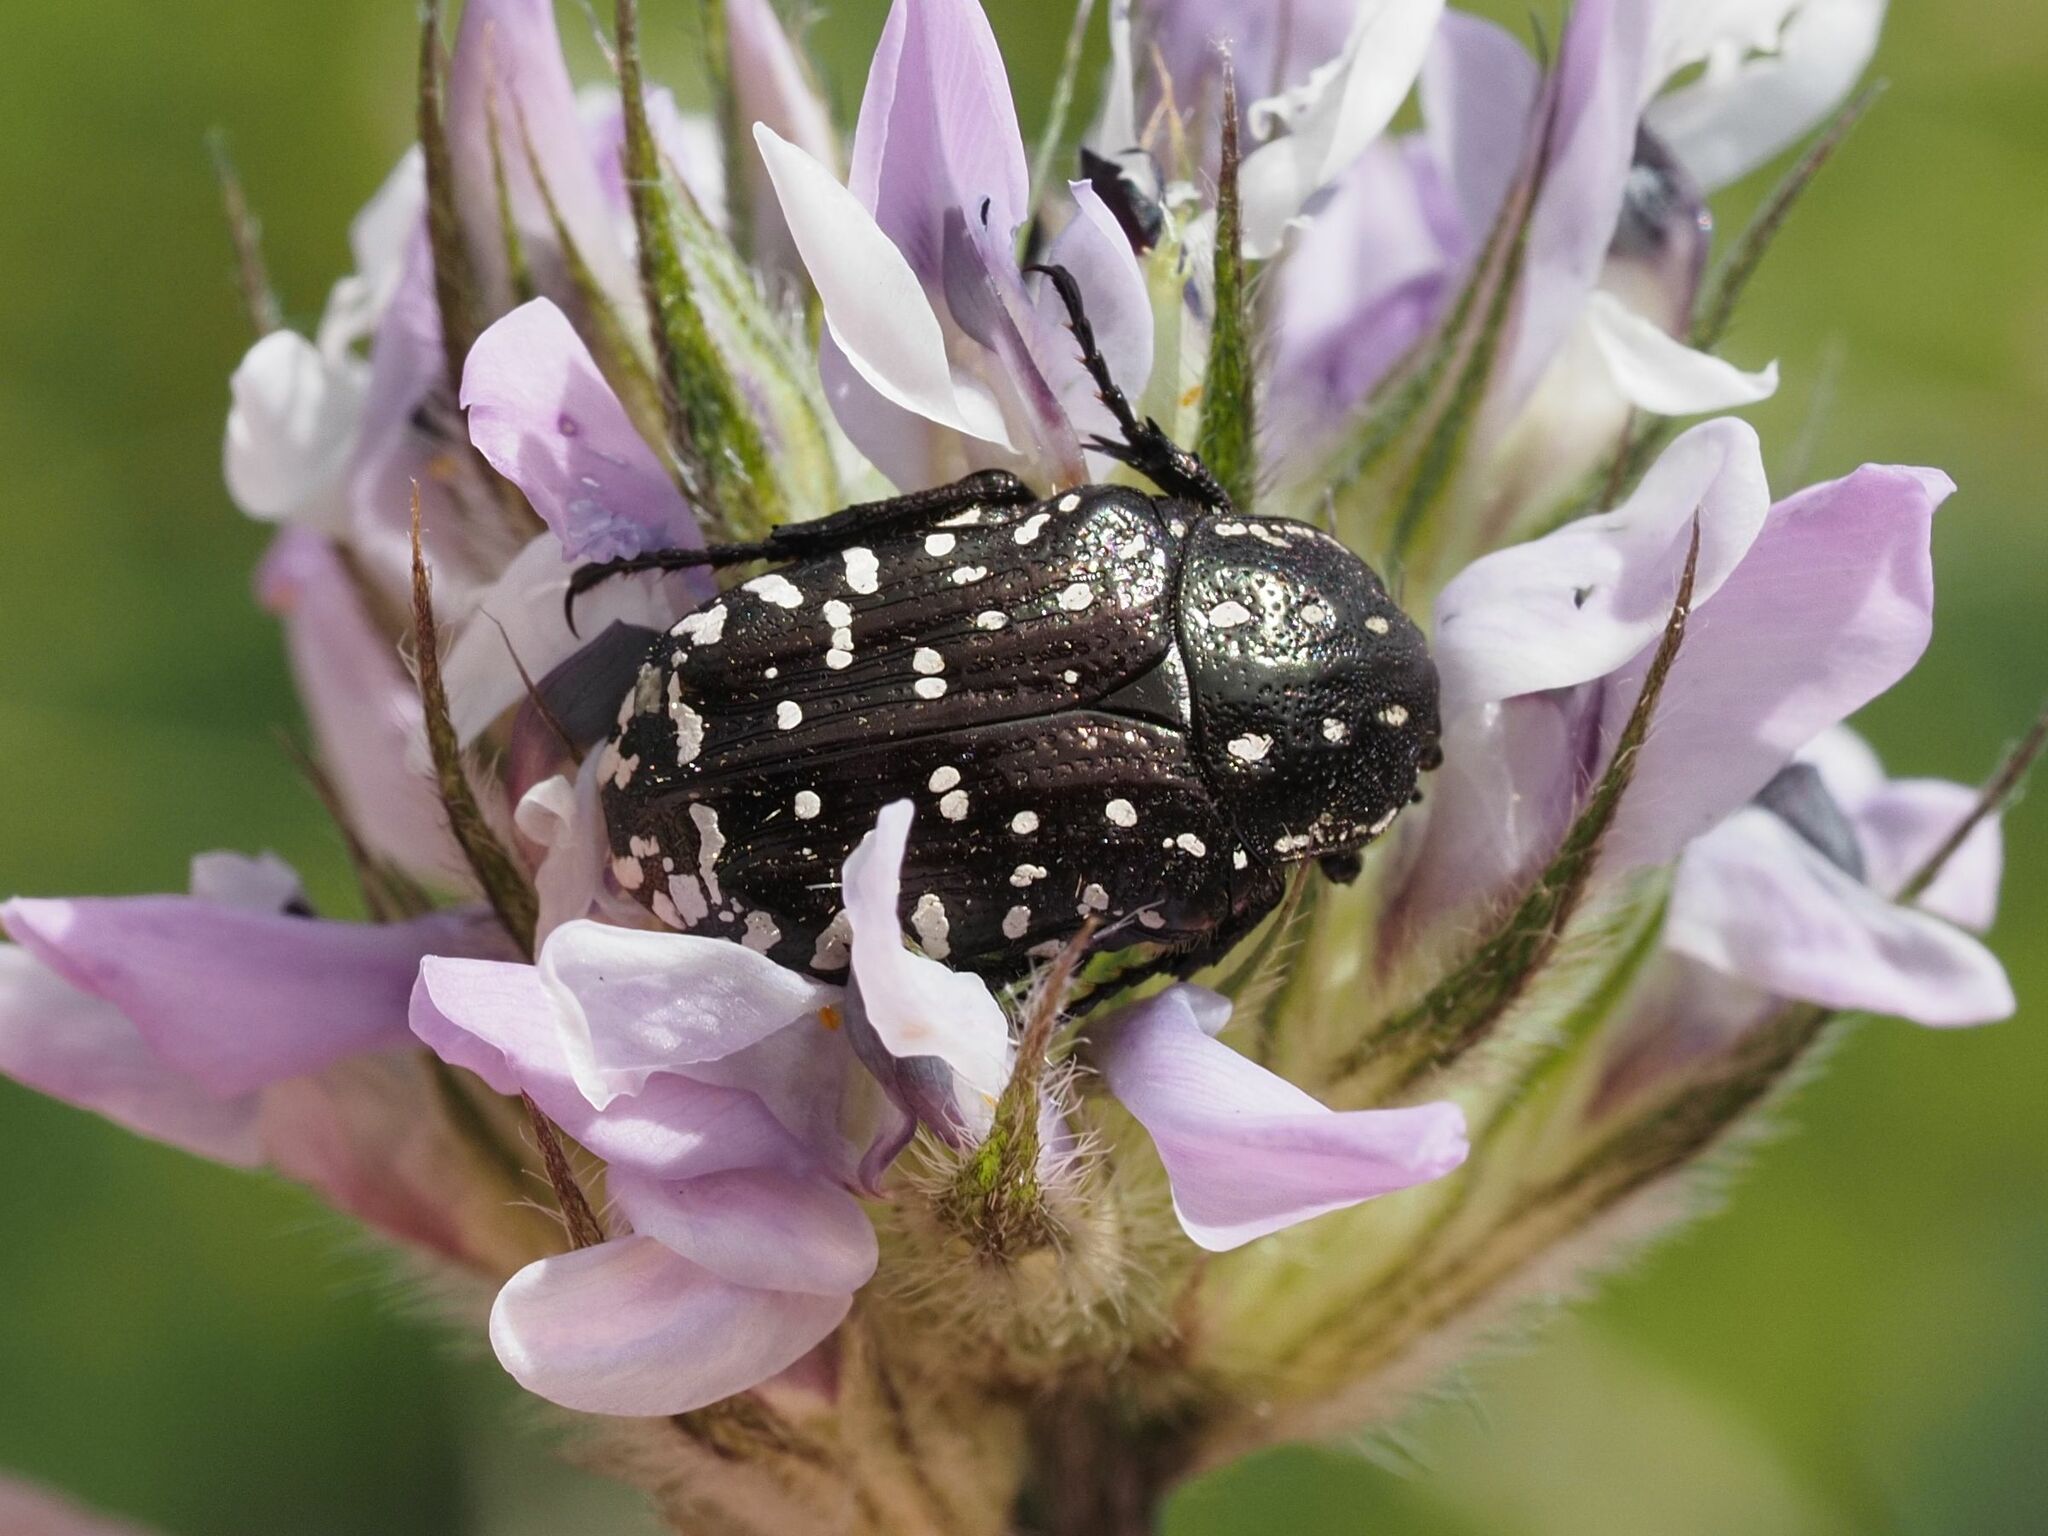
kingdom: Animalia
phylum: Arthropoda
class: Insecta
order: Coleoptera
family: Scarabaeidae
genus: Oxythyrea
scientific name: Oxythyrea funesta
